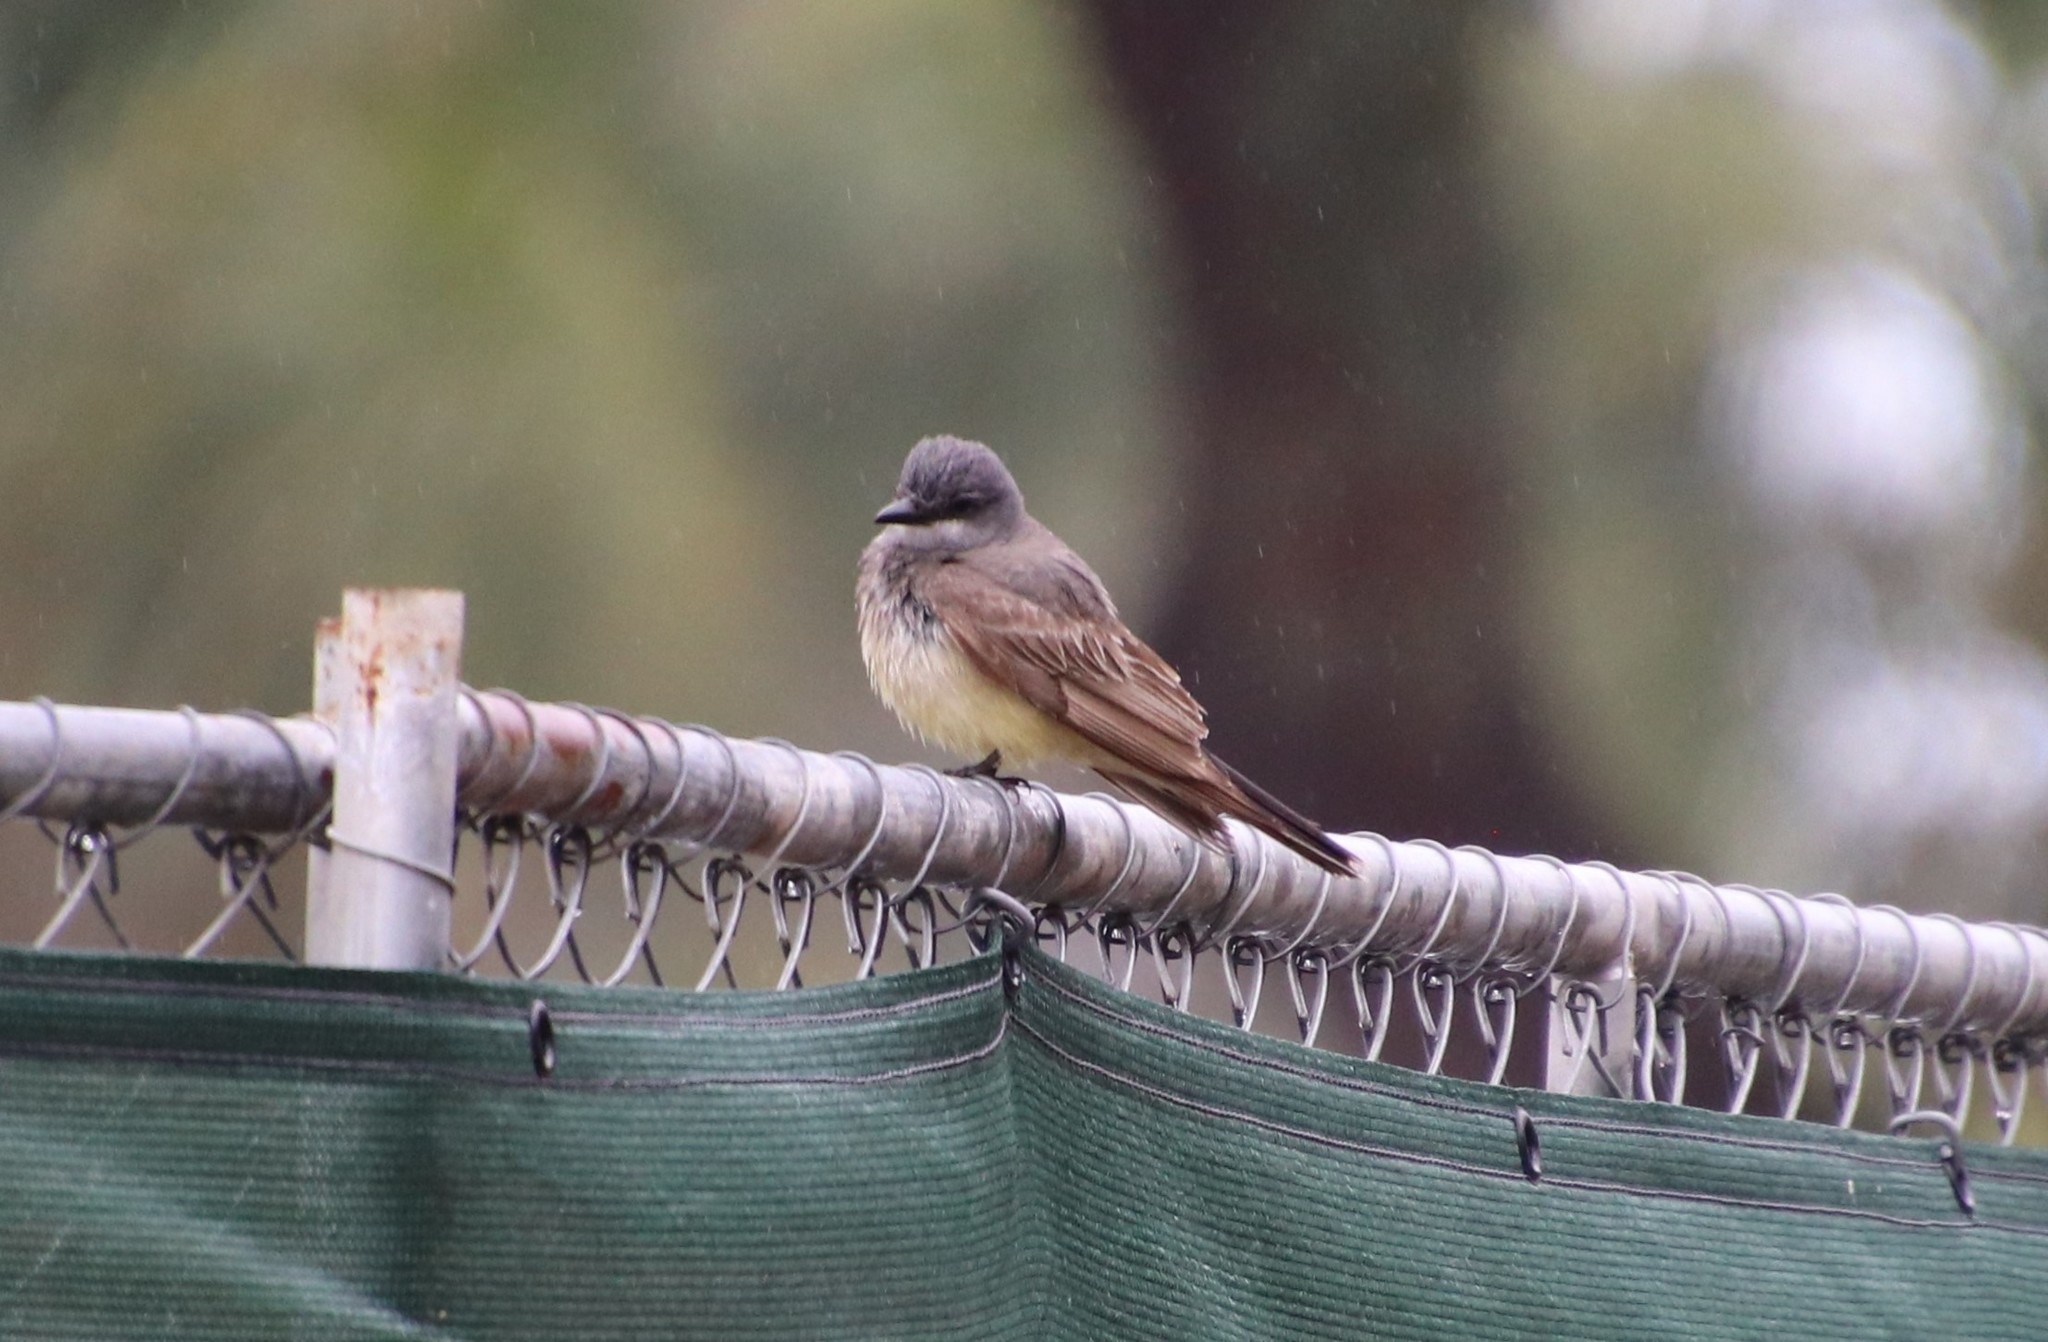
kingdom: Animalia
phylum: Chordata
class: Aves
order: Passeriformes
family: Tyrannidae
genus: Tyrannus
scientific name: Tyrannus vociferans
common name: Cassin's kingbird
